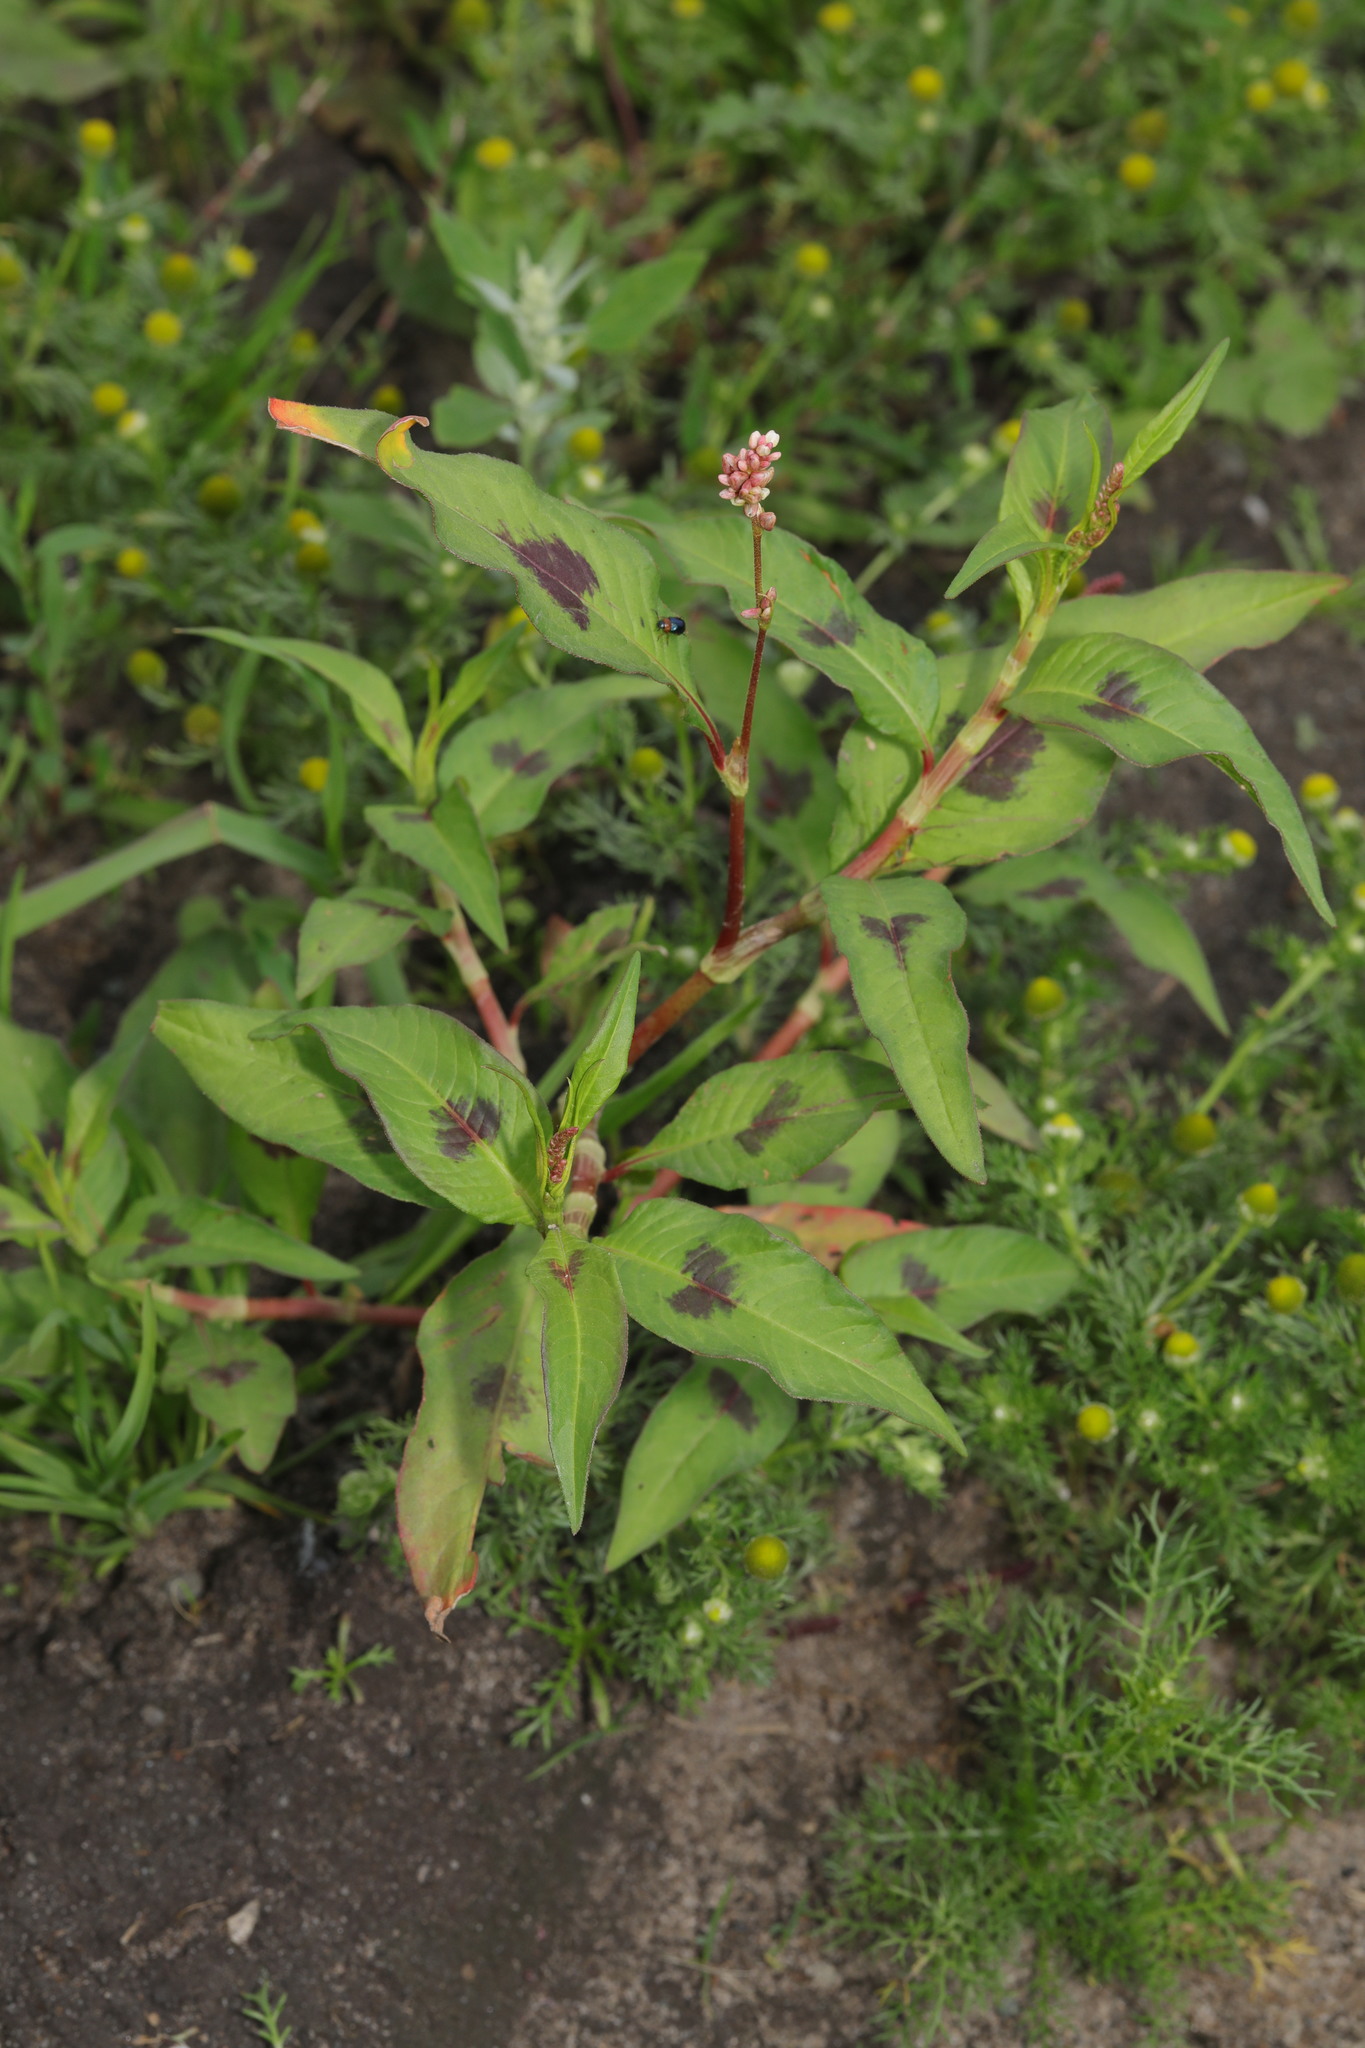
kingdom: Plantae
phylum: Tracheophyta
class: Magnoliopsida
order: Caryophyllales
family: Polygonaceae
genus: Persicaria
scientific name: Persicaria maculosa
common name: Redshank
